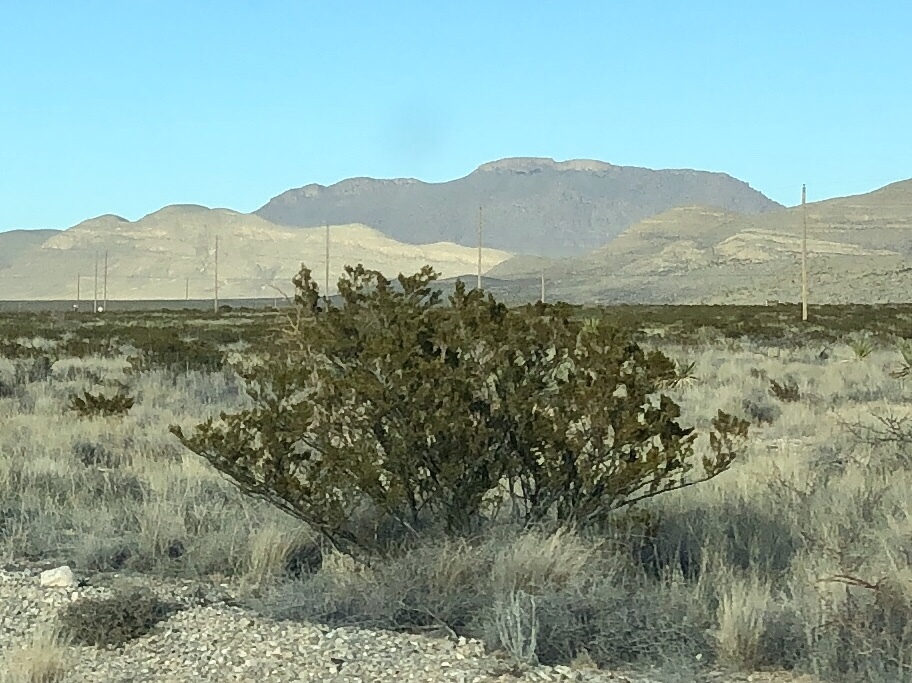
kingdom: Plantae
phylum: Tracheophyta
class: Magnoliopsida
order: Zygophyllales
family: Zygophyllaceae
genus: Larrea
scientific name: Larrea tridentata
